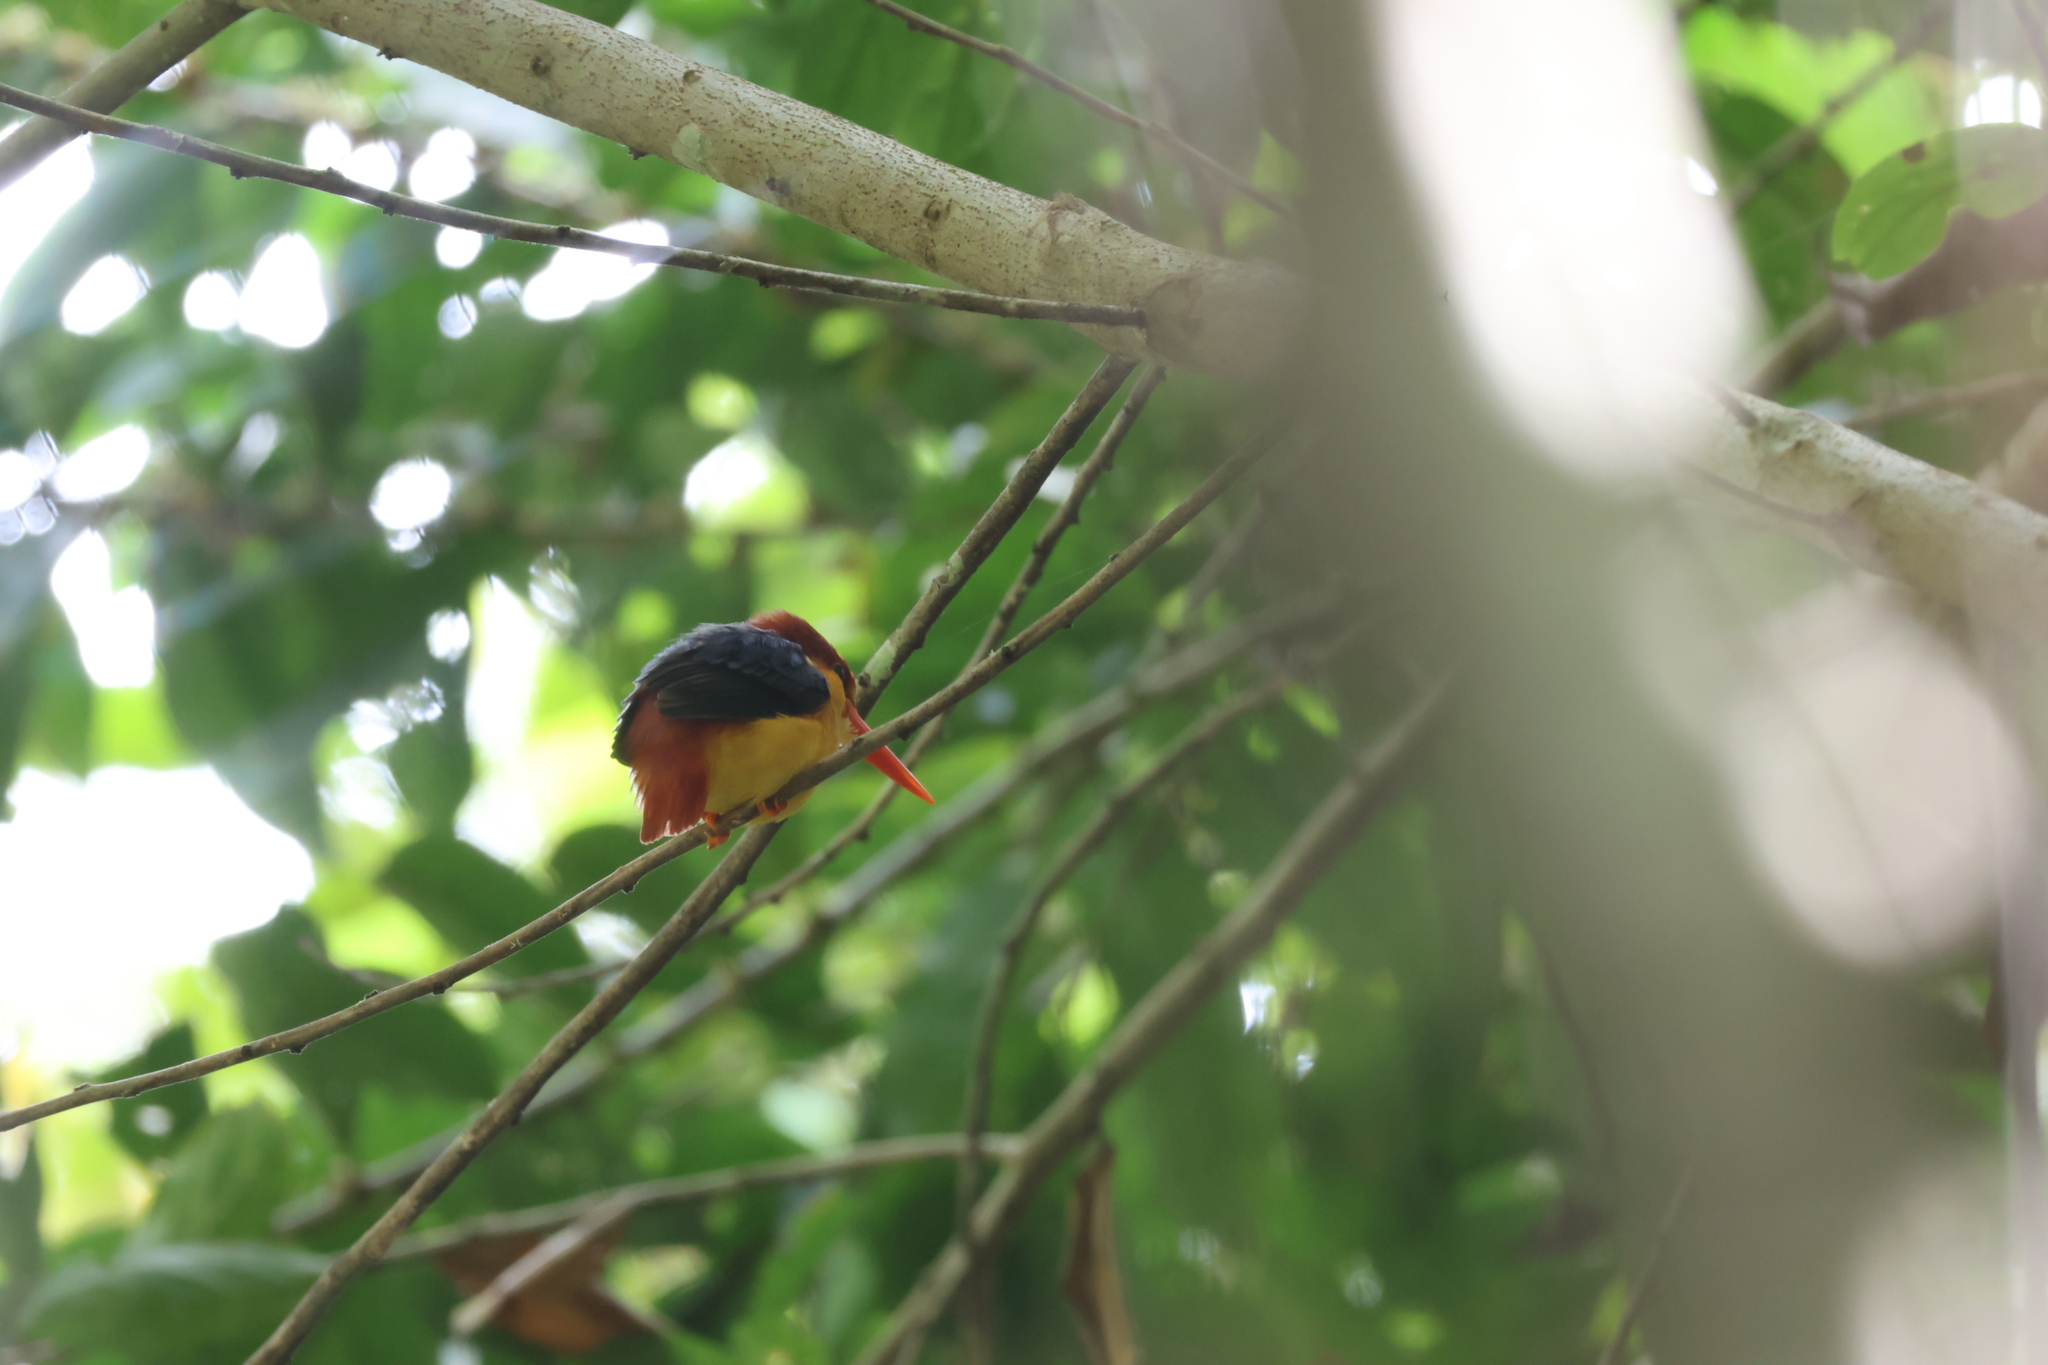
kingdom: Animalia
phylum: Chordata
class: Aves
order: Coraciiformes
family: Alcedinidae
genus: Ceyx
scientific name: Ceyx erithaca
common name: Oriental dwarf kingfisher
